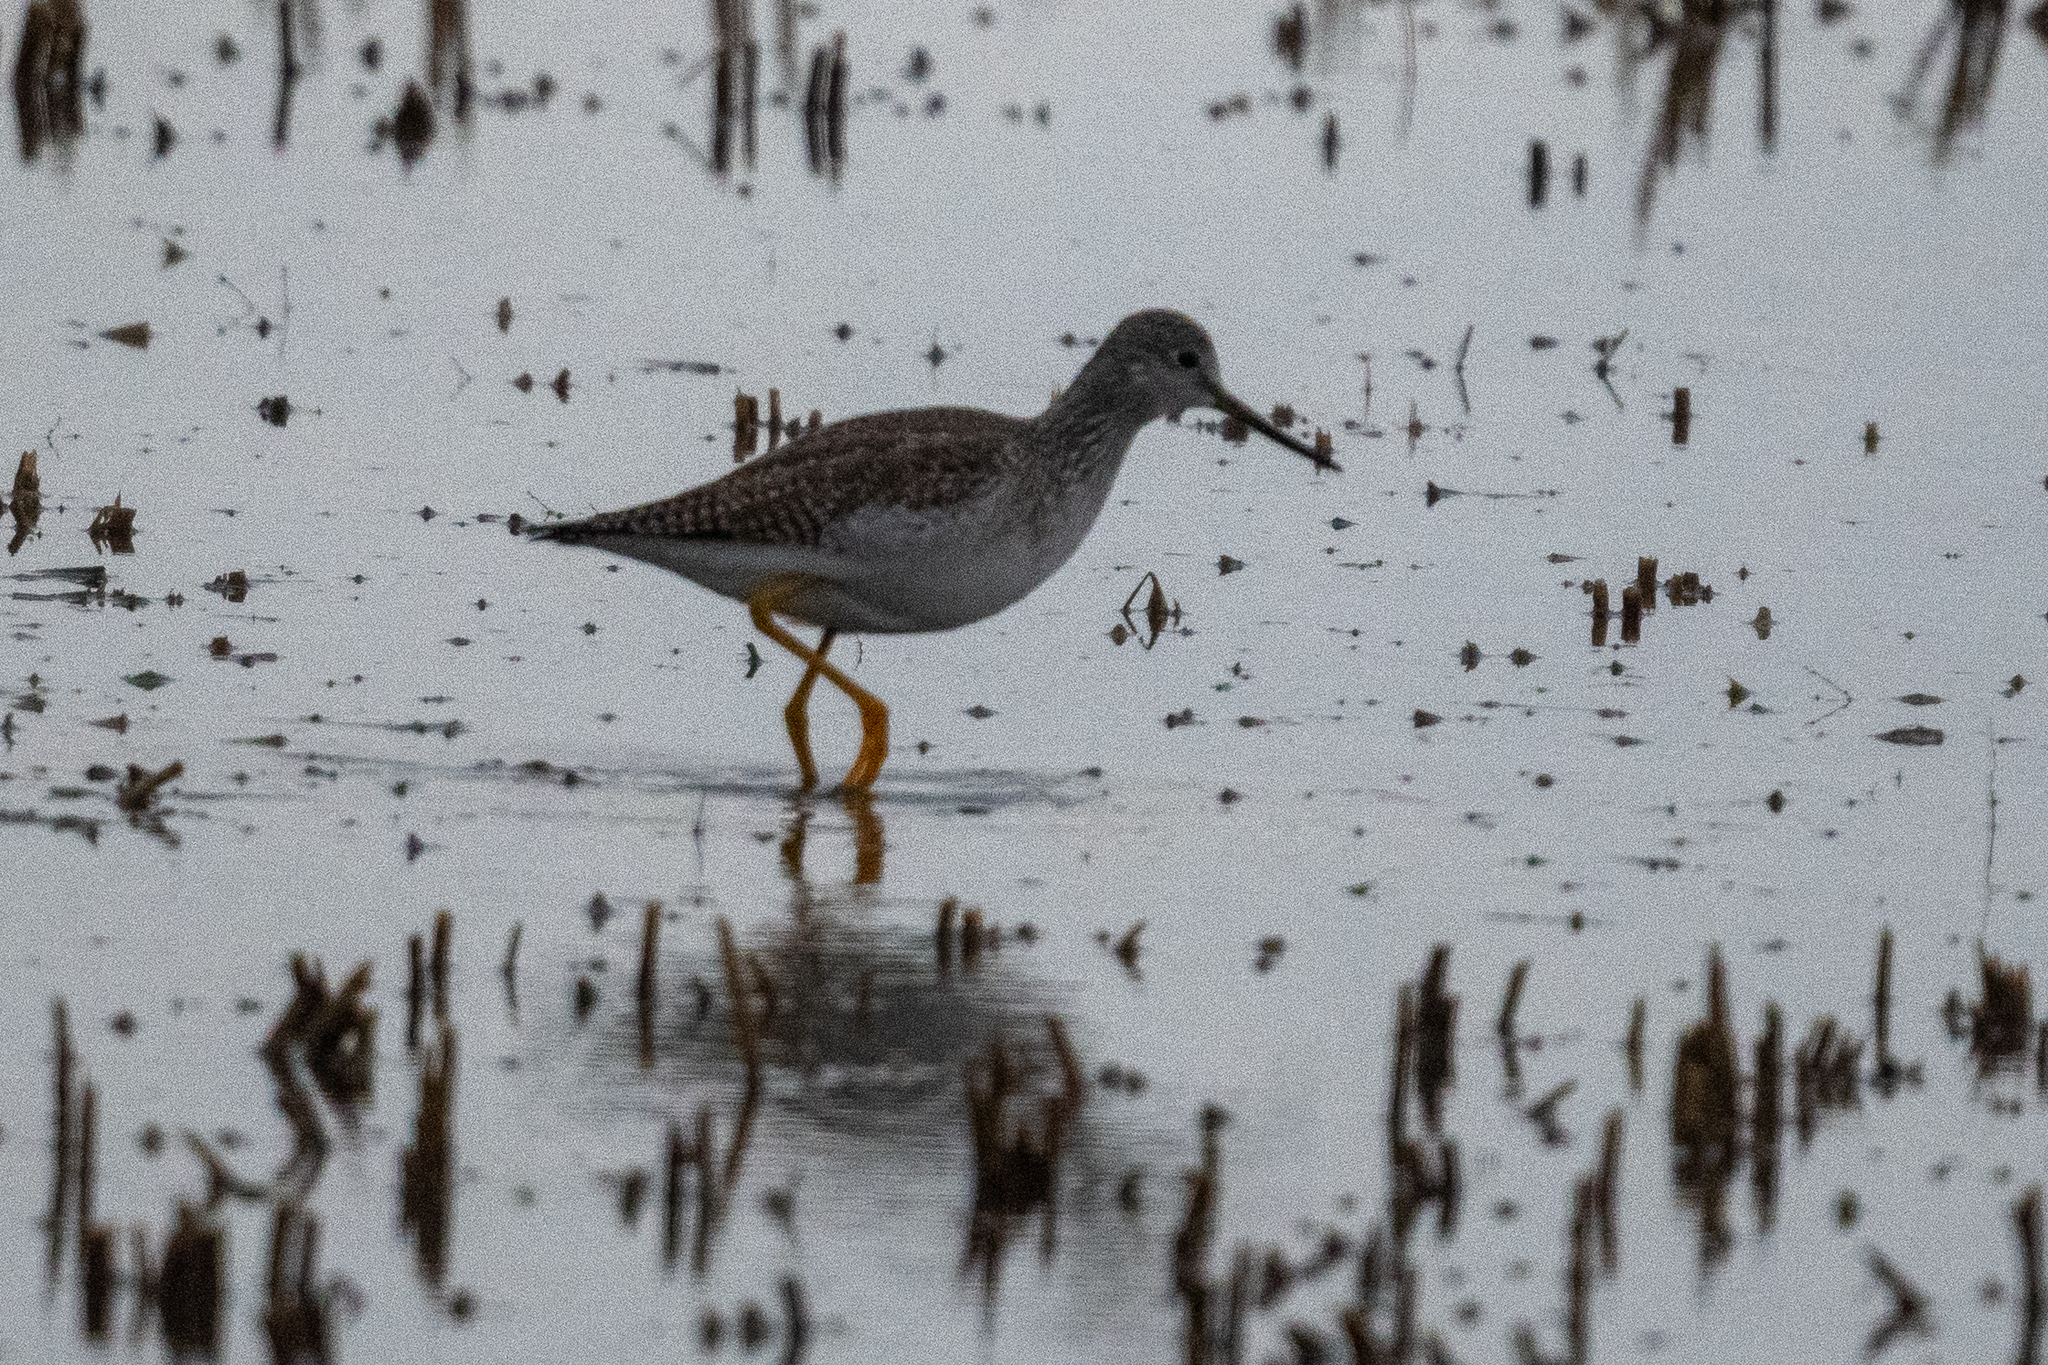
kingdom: Animalia
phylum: Chordata
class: Aves
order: Charadriiformes
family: Scolopacidae
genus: Tringa
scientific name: Tringa melanoleuca
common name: Greater yellowlegs
